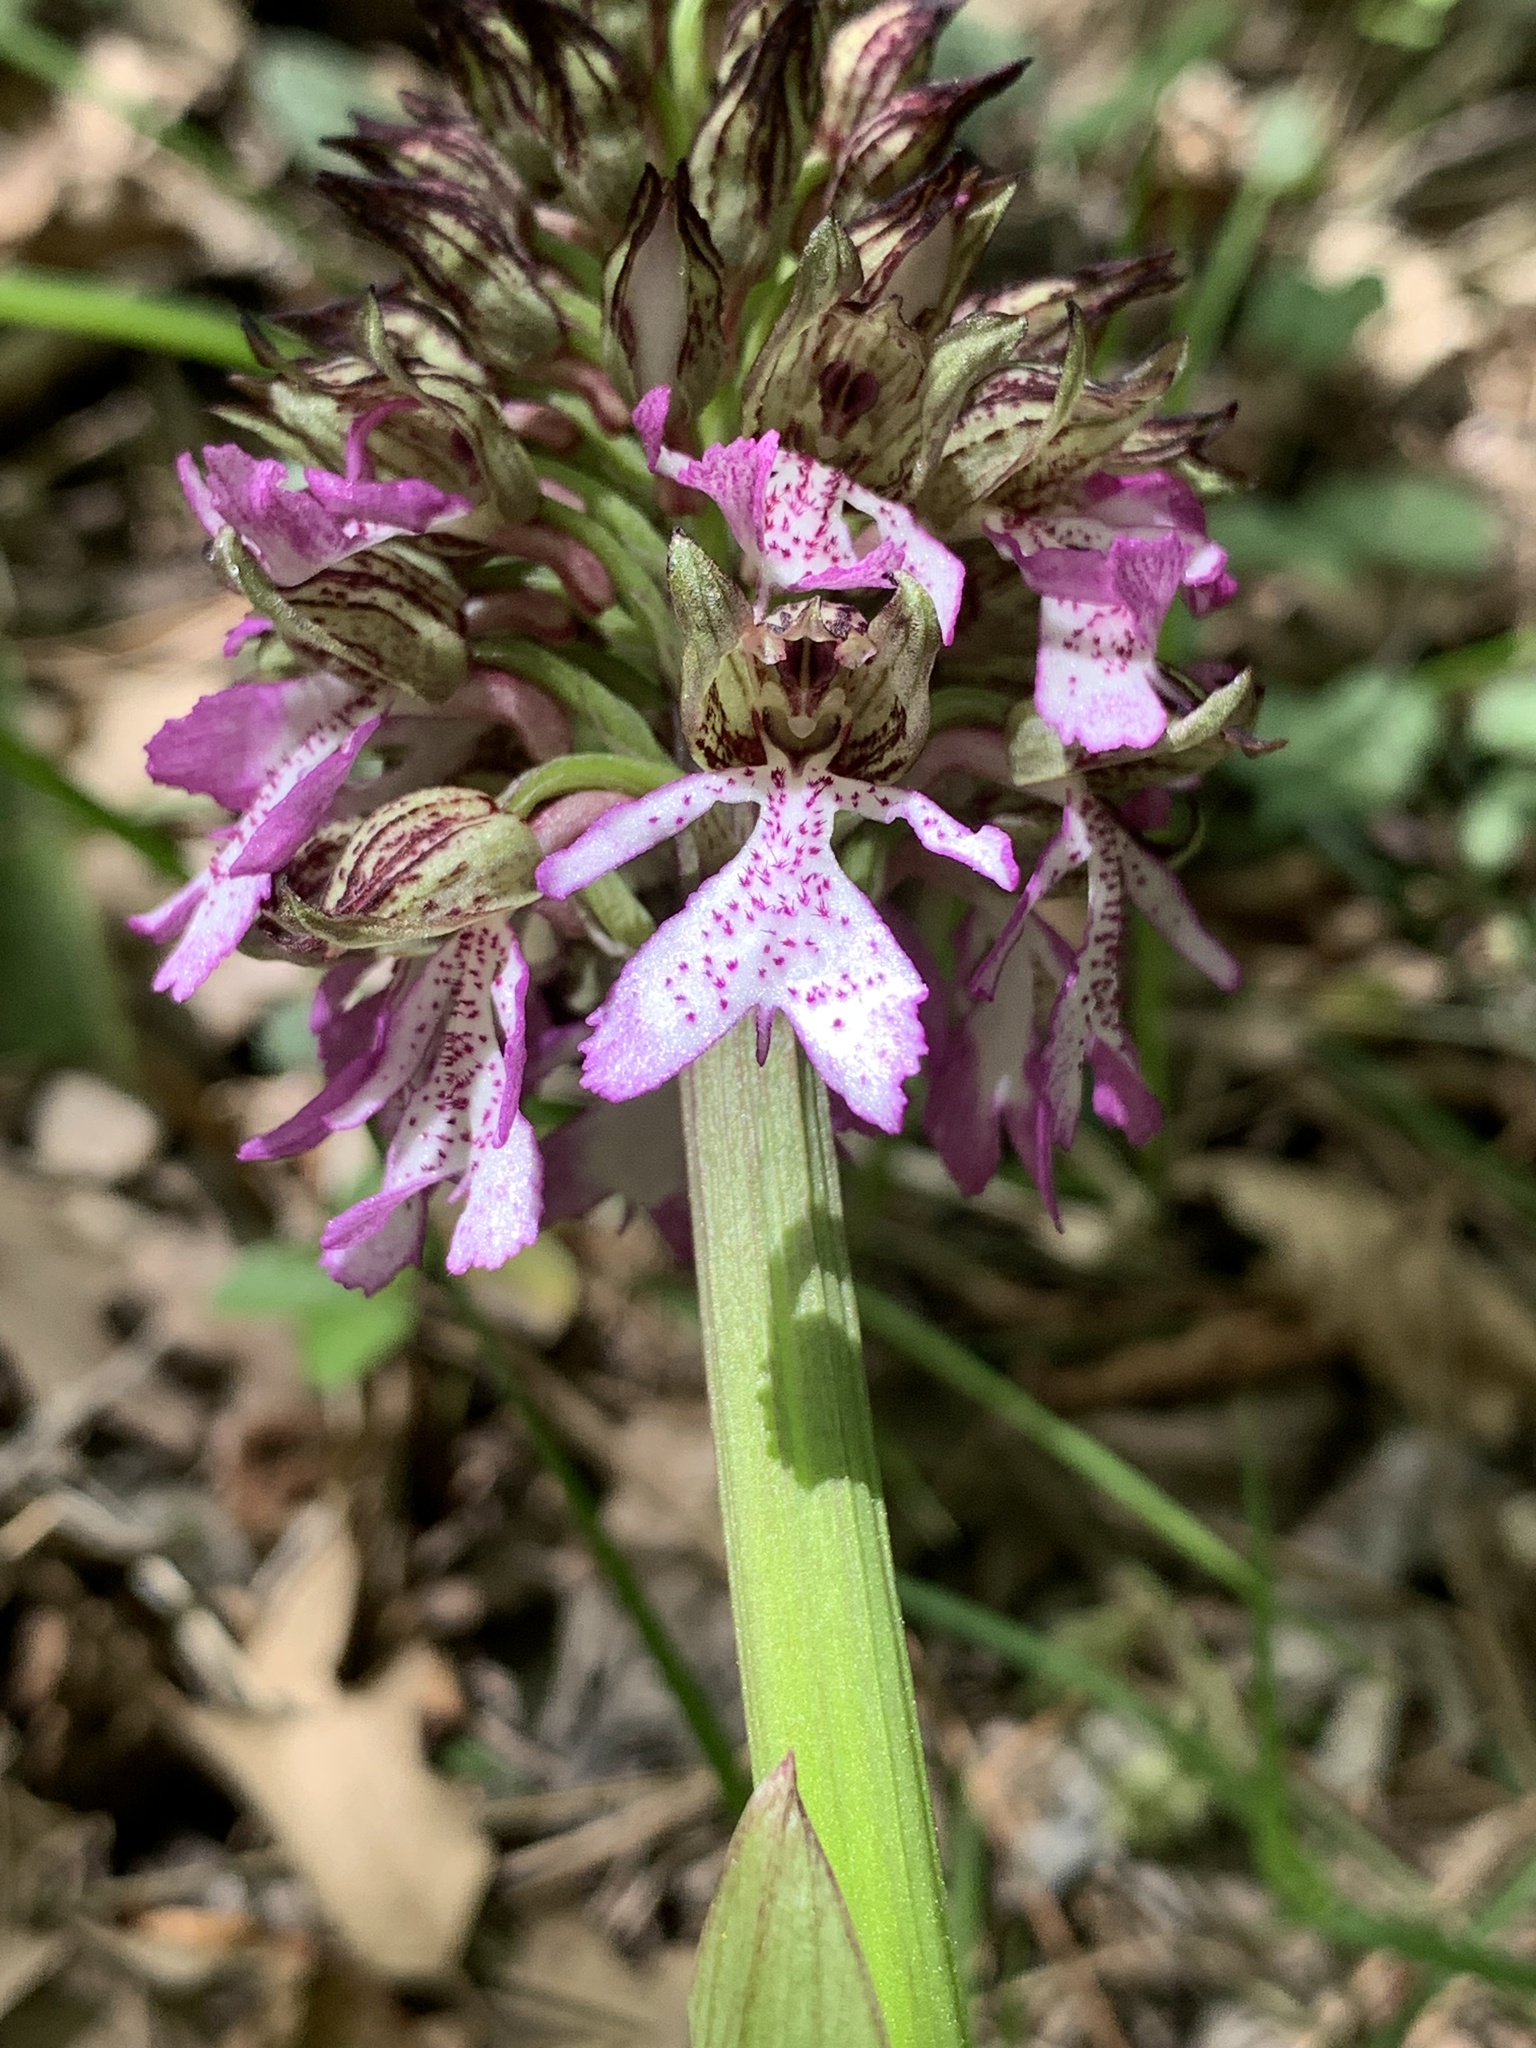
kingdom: Plantae
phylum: Tracheophyta
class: Liliopsida
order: Asparagales
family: Orchidaceae
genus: Orchis
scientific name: Orchis purpurea
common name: Lady orchid
